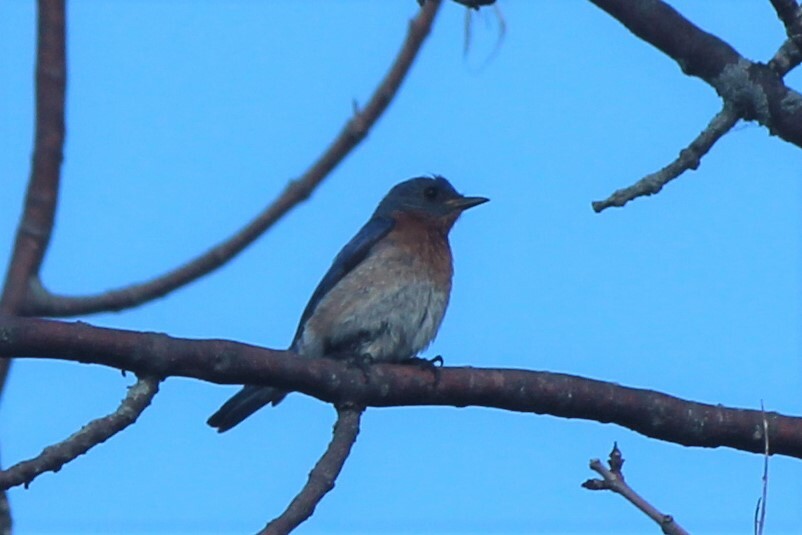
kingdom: Animalia
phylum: Chordata
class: Aves
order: Passeriformes
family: Turdidae
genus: Sialia
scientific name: Sialia sialis
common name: Eastern bluebird
